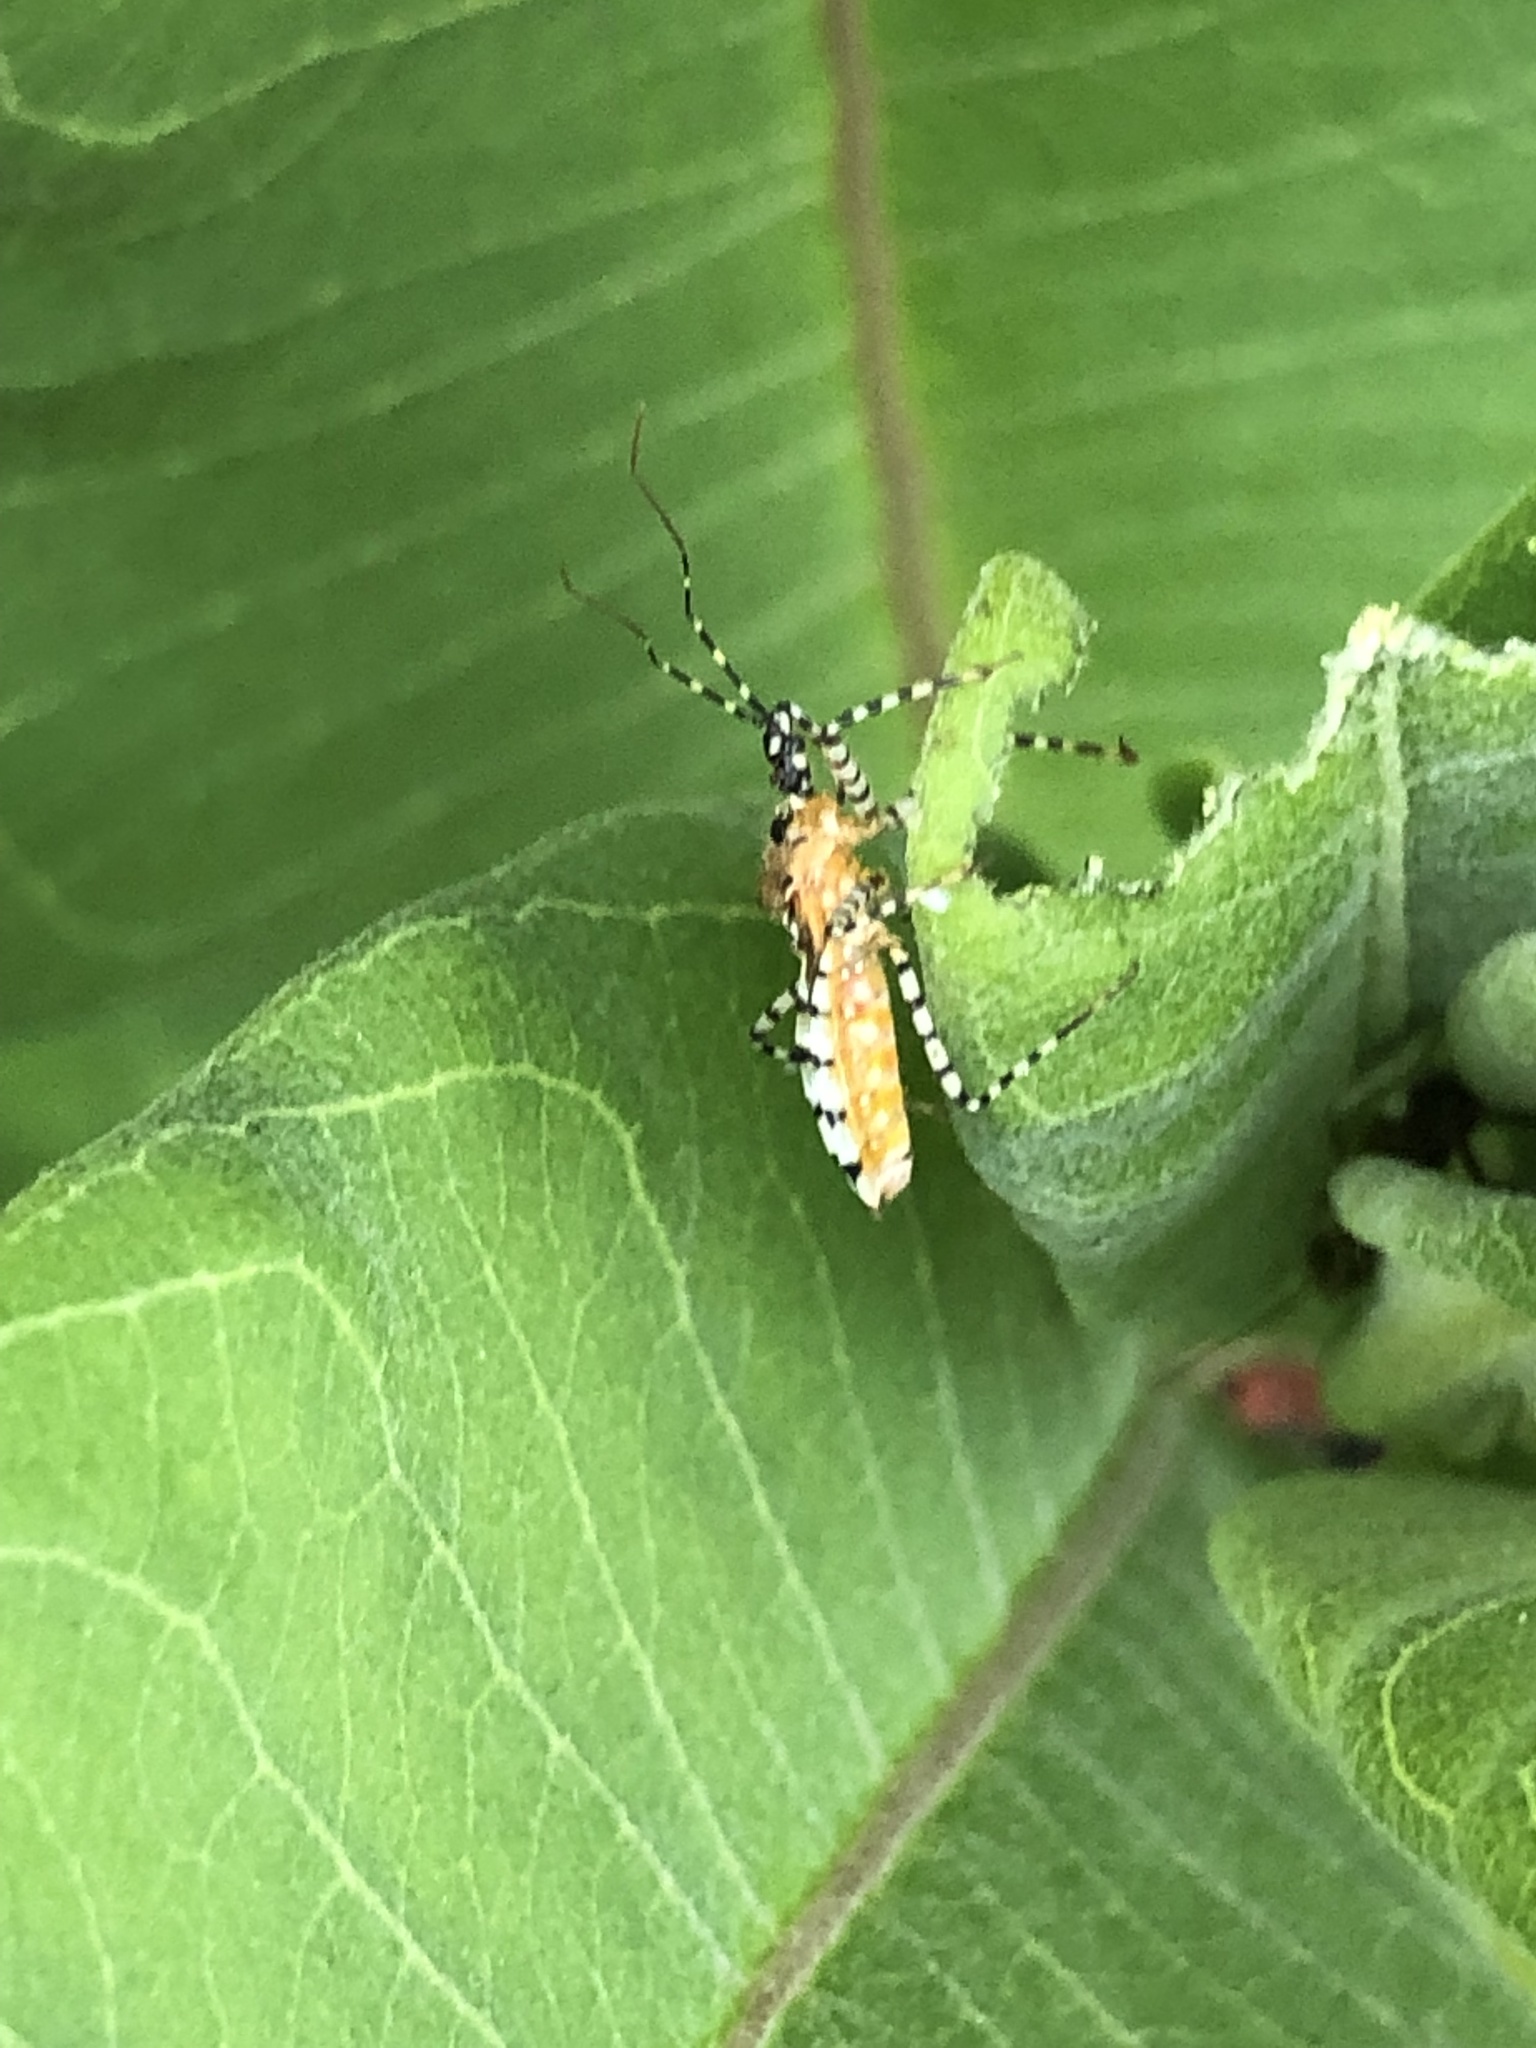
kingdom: Animalia
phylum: Arthropoda
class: Insecta
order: Hemiptera
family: Reduviidae
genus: Pselliopus
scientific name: Pselliopus cinctus
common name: Ringed assassin bug
